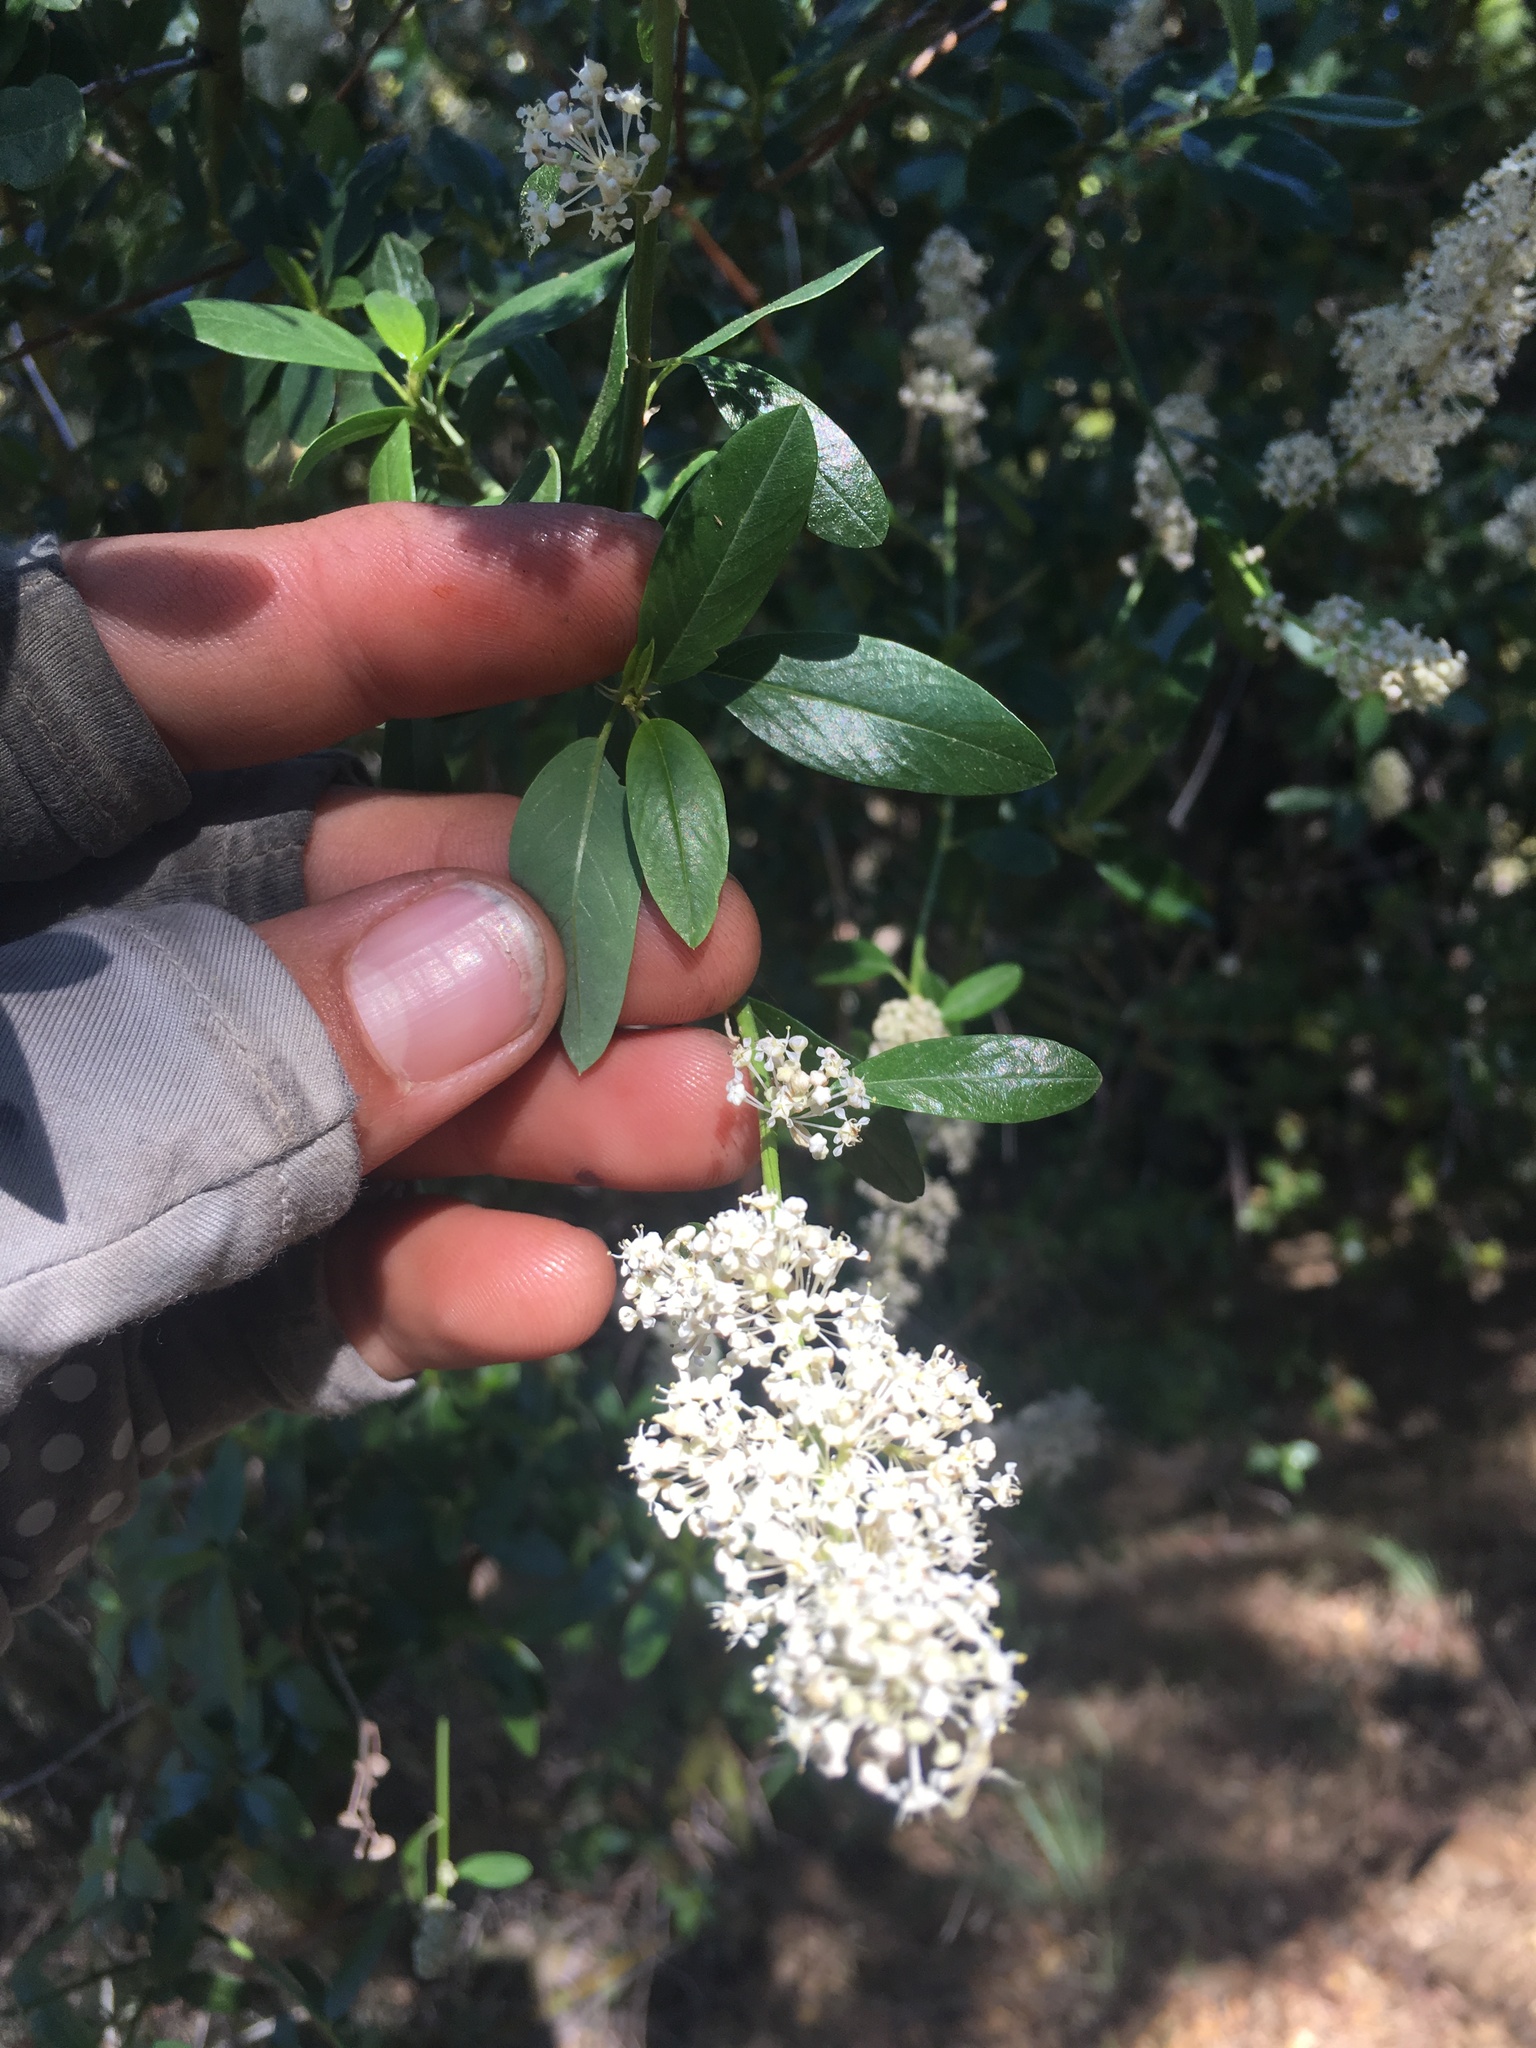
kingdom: Plantae
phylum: Tracheophyta
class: Magnoliopsida
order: Rosales
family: Rhamnaceae
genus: Ceanothus
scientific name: Ceanothus palmeri
